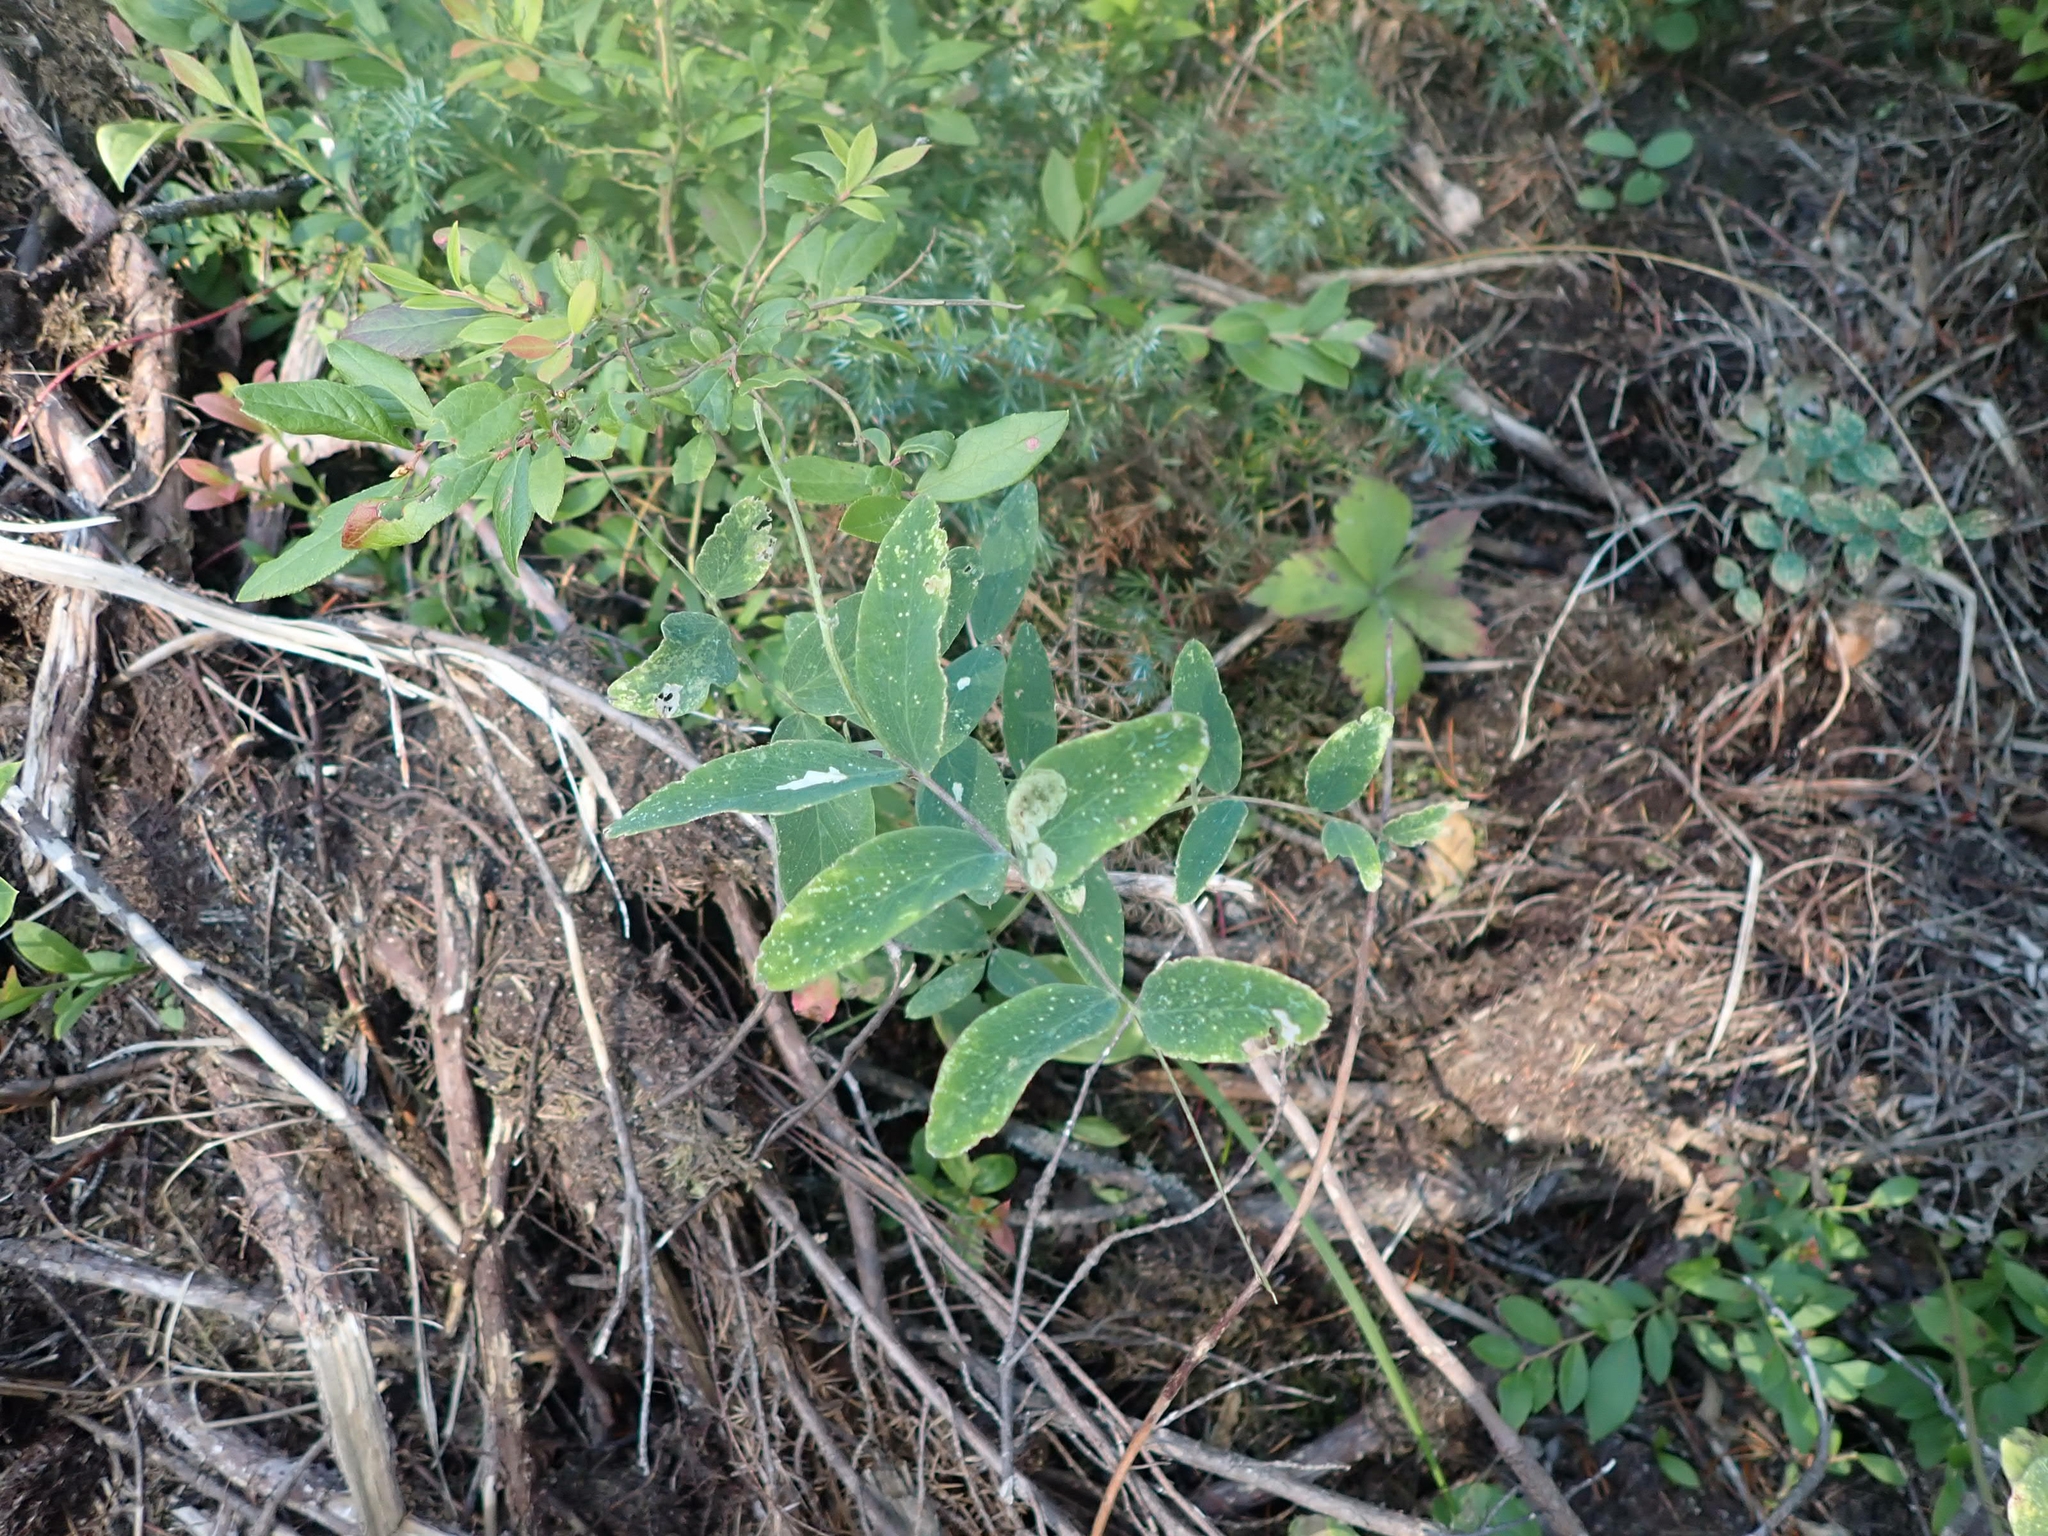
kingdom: Plantae
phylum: Tracheophyta
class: Magnoliopsida
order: Fabales
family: Fabaceae
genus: Lathyrus
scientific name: Lathyrus venosus
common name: Forest-pea
